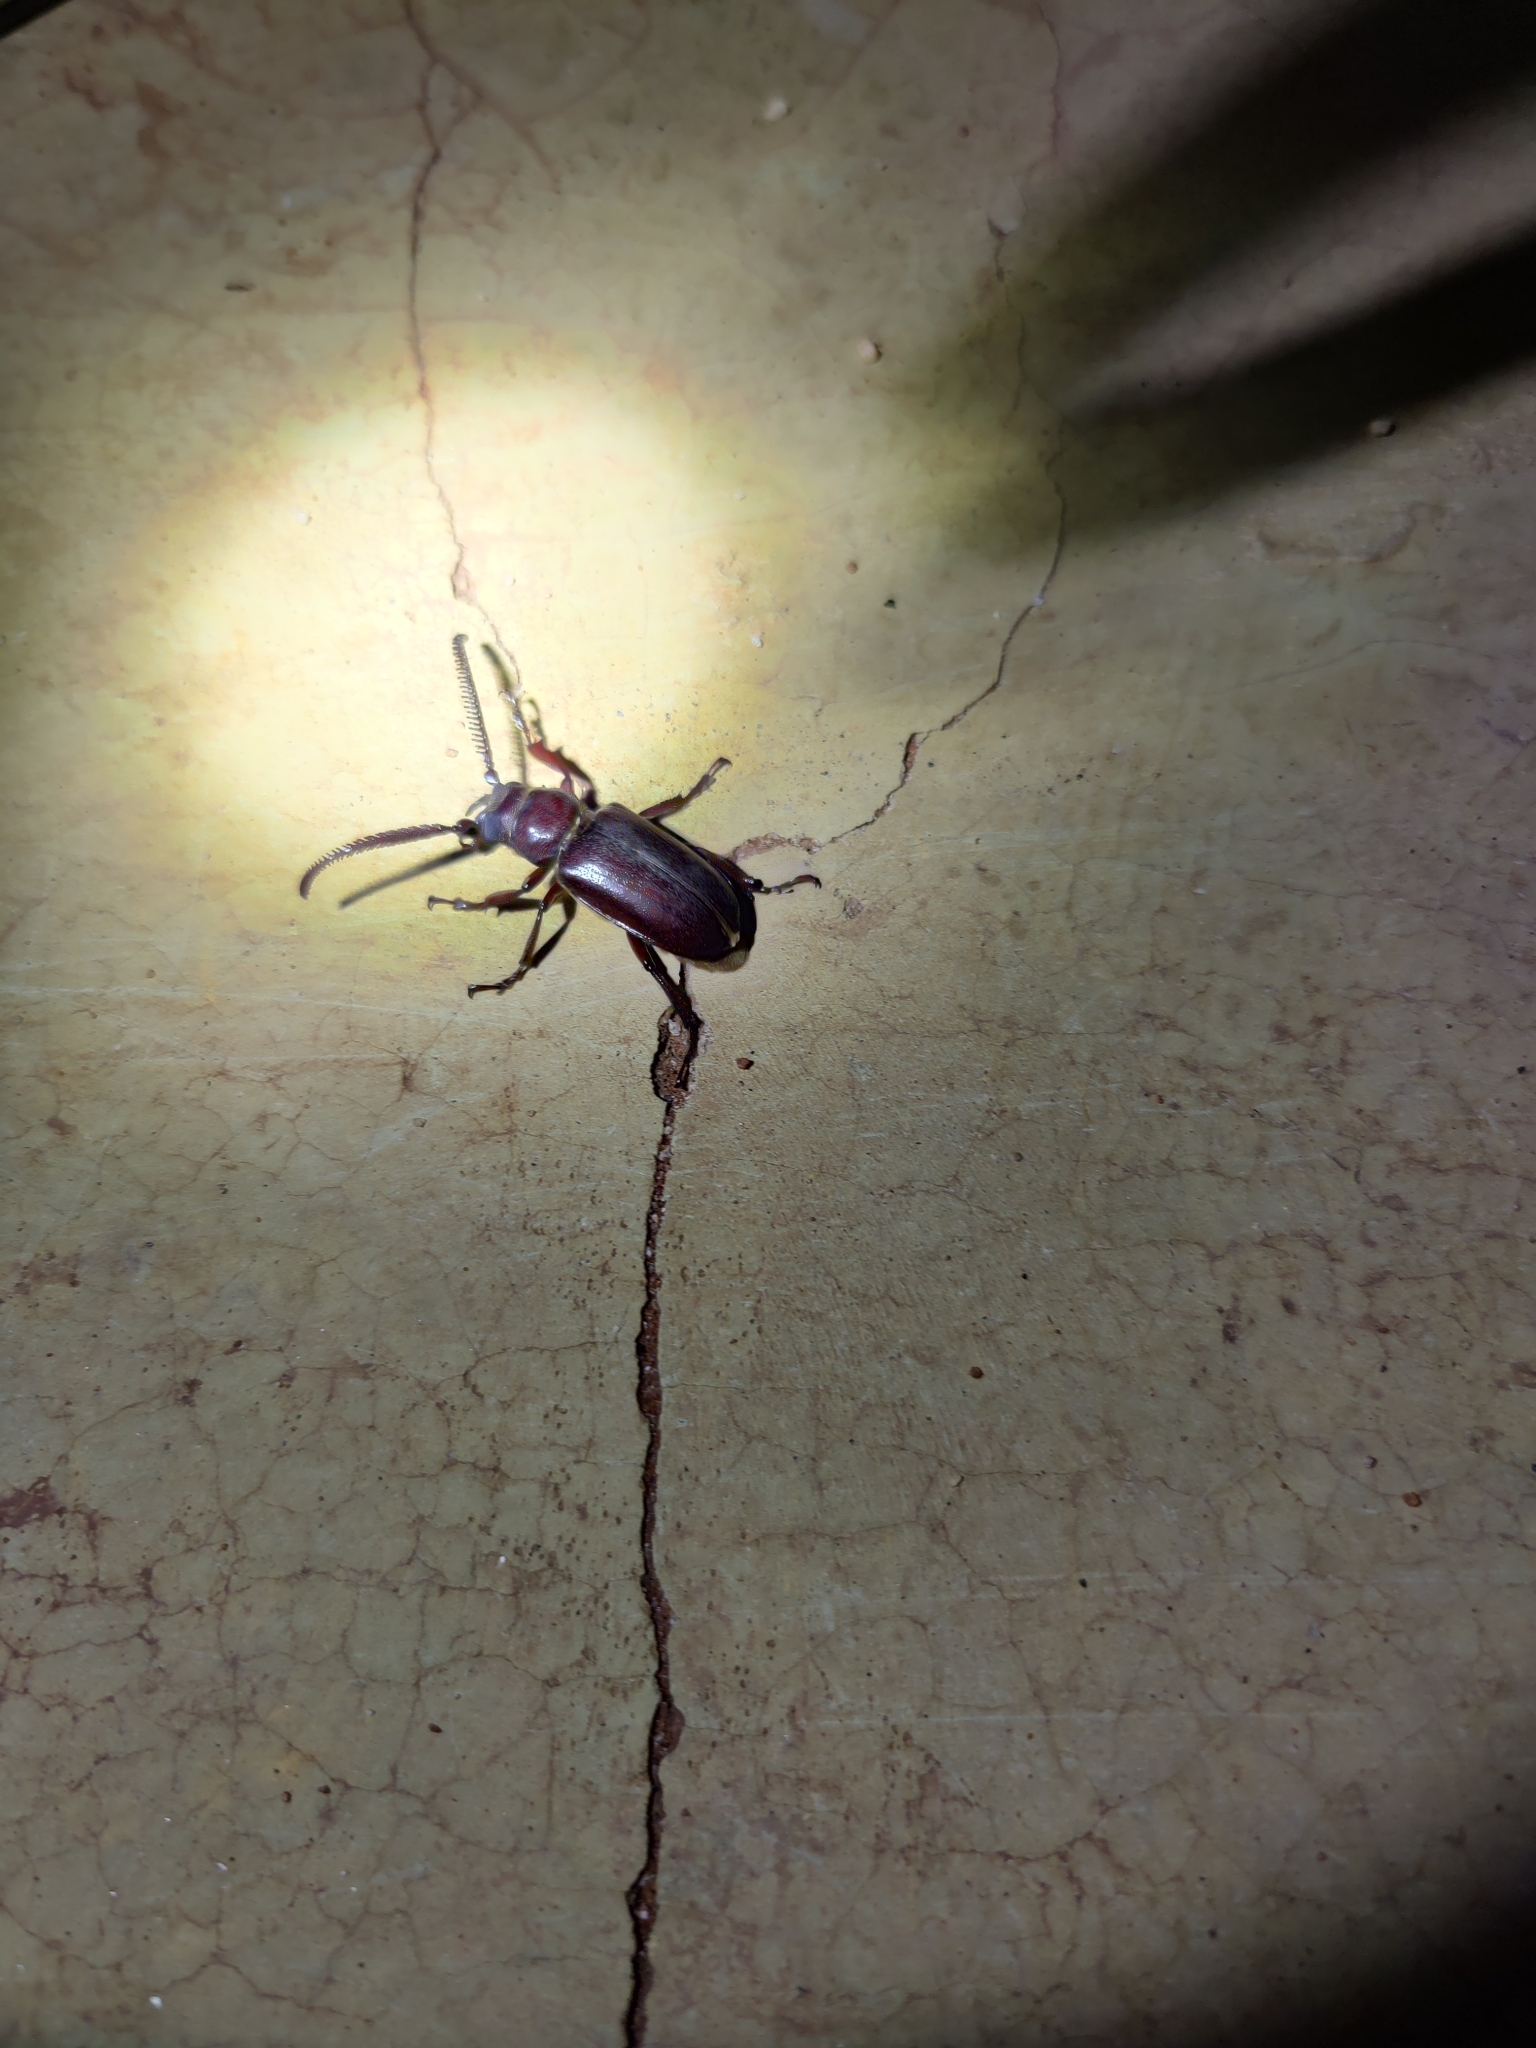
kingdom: Animalia
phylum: Arthropoda
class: Insecta
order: Coleoptera
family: Cerambycidae
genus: Cantharoctenus
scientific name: Cantharoctenus burchellii
